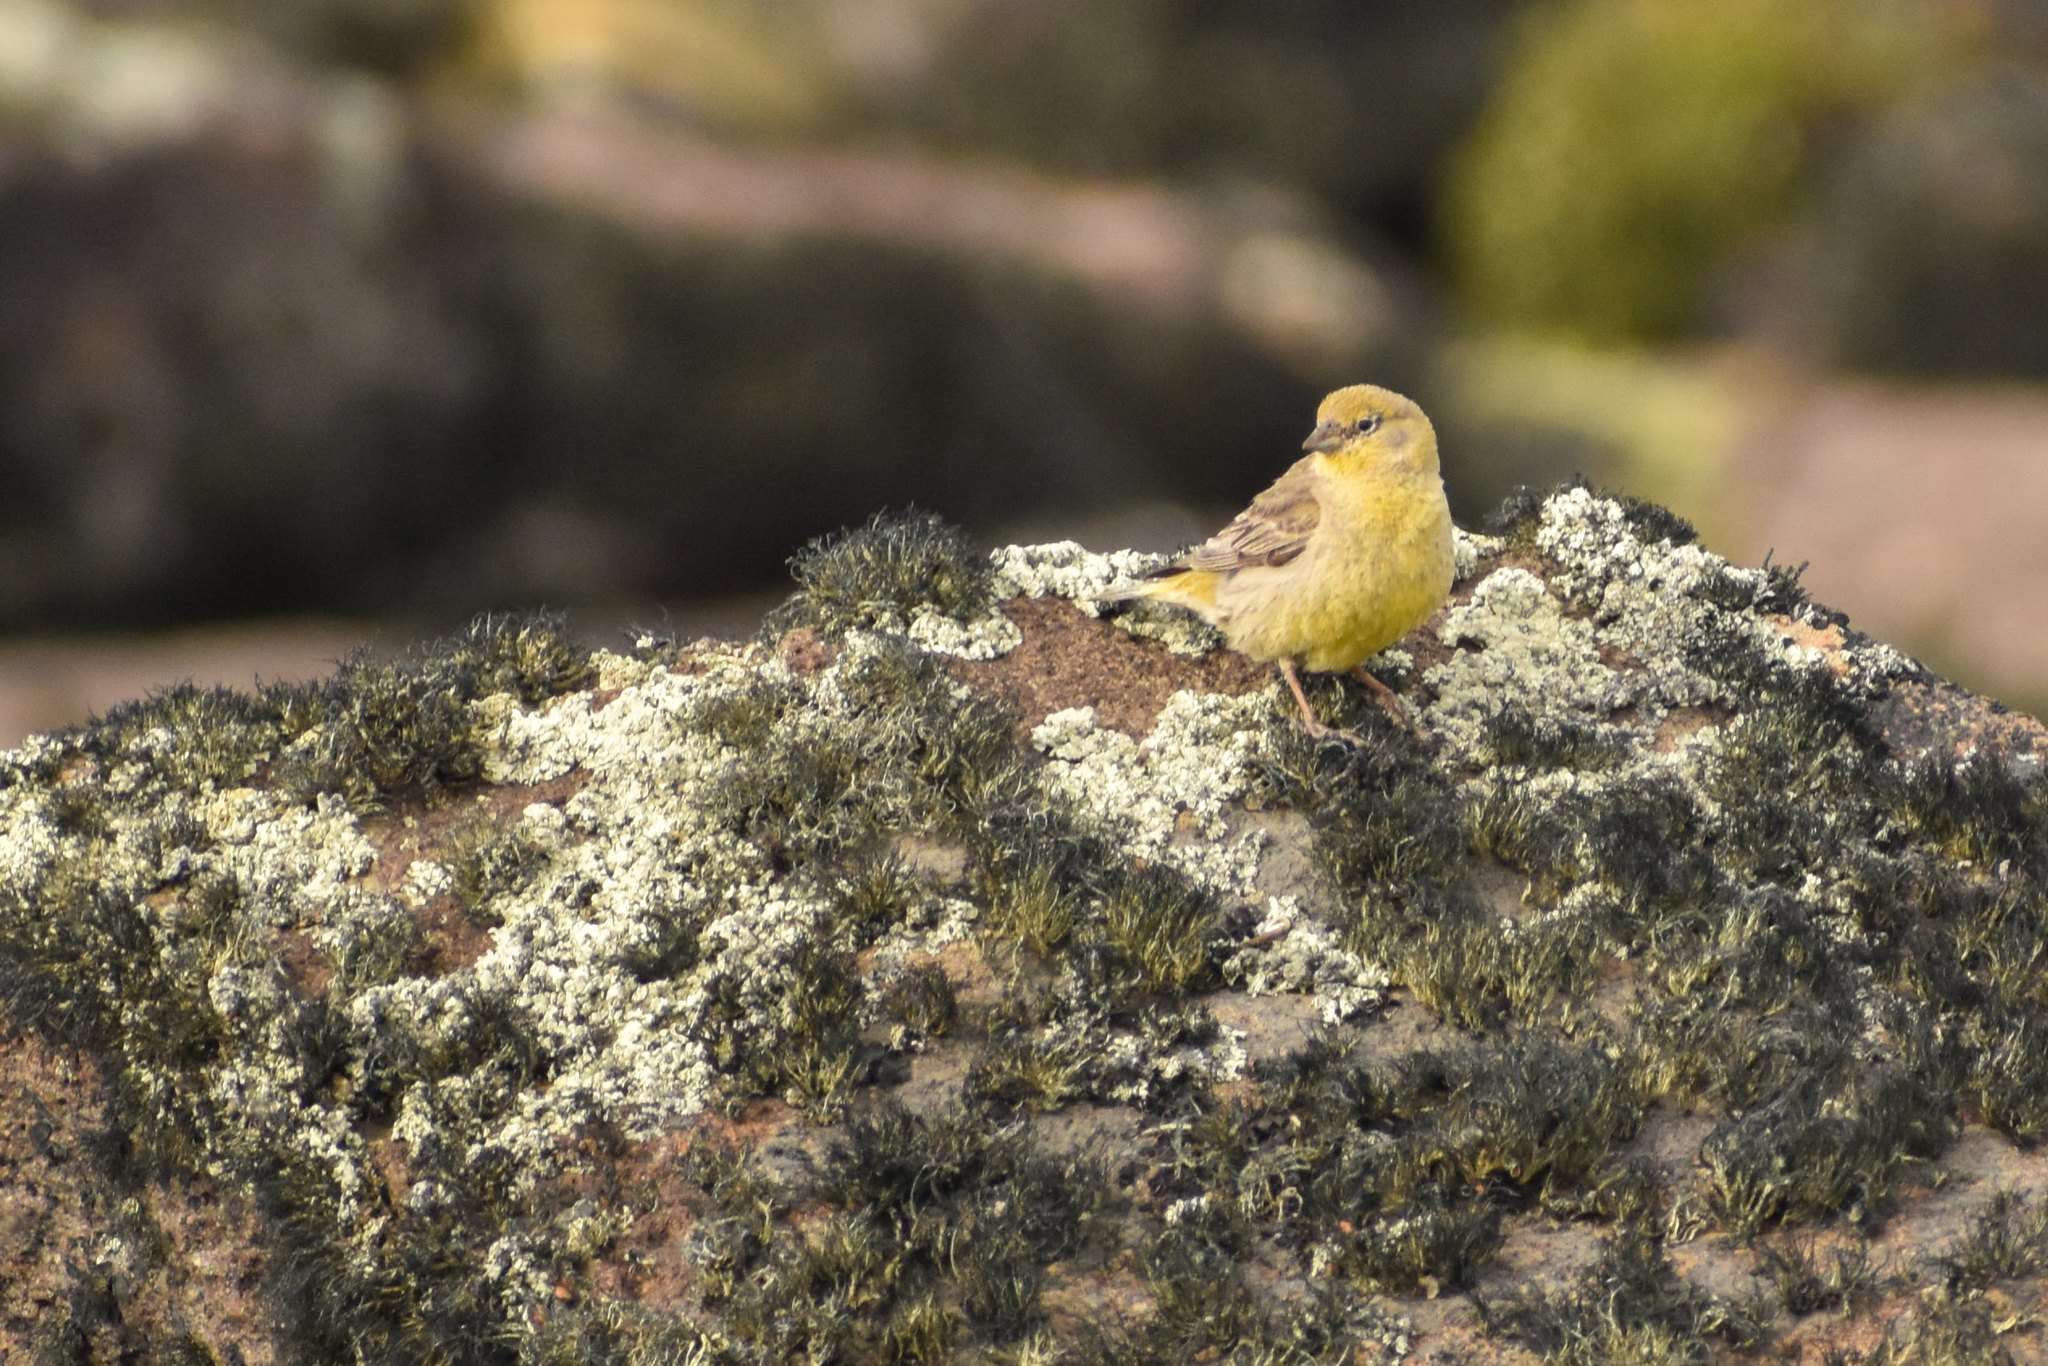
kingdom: Animalia
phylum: Chordata
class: Aves
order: Passeriformes
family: Thraupidae
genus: Sicalis
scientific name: Sicalis auriventris
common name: Greater yellow finch
